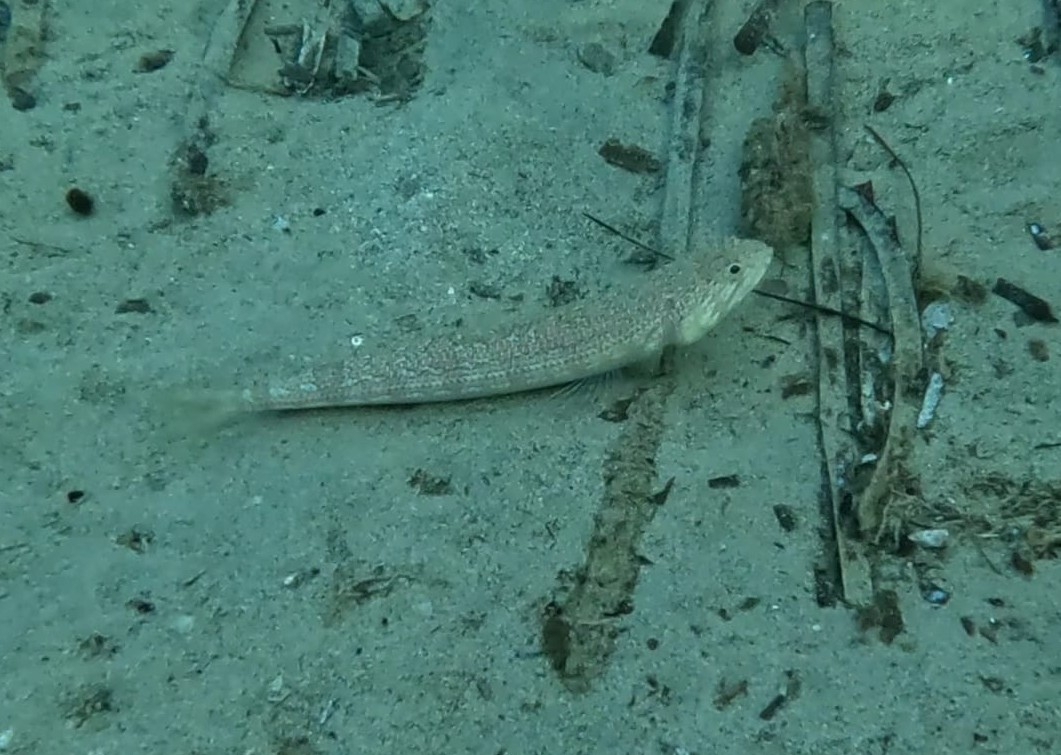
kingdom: Animalia
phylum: Chordata
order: Aulopiformes
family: Synodontidae
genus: Synodus
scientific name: Synodus saurus
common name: Atlantic lizardfish
